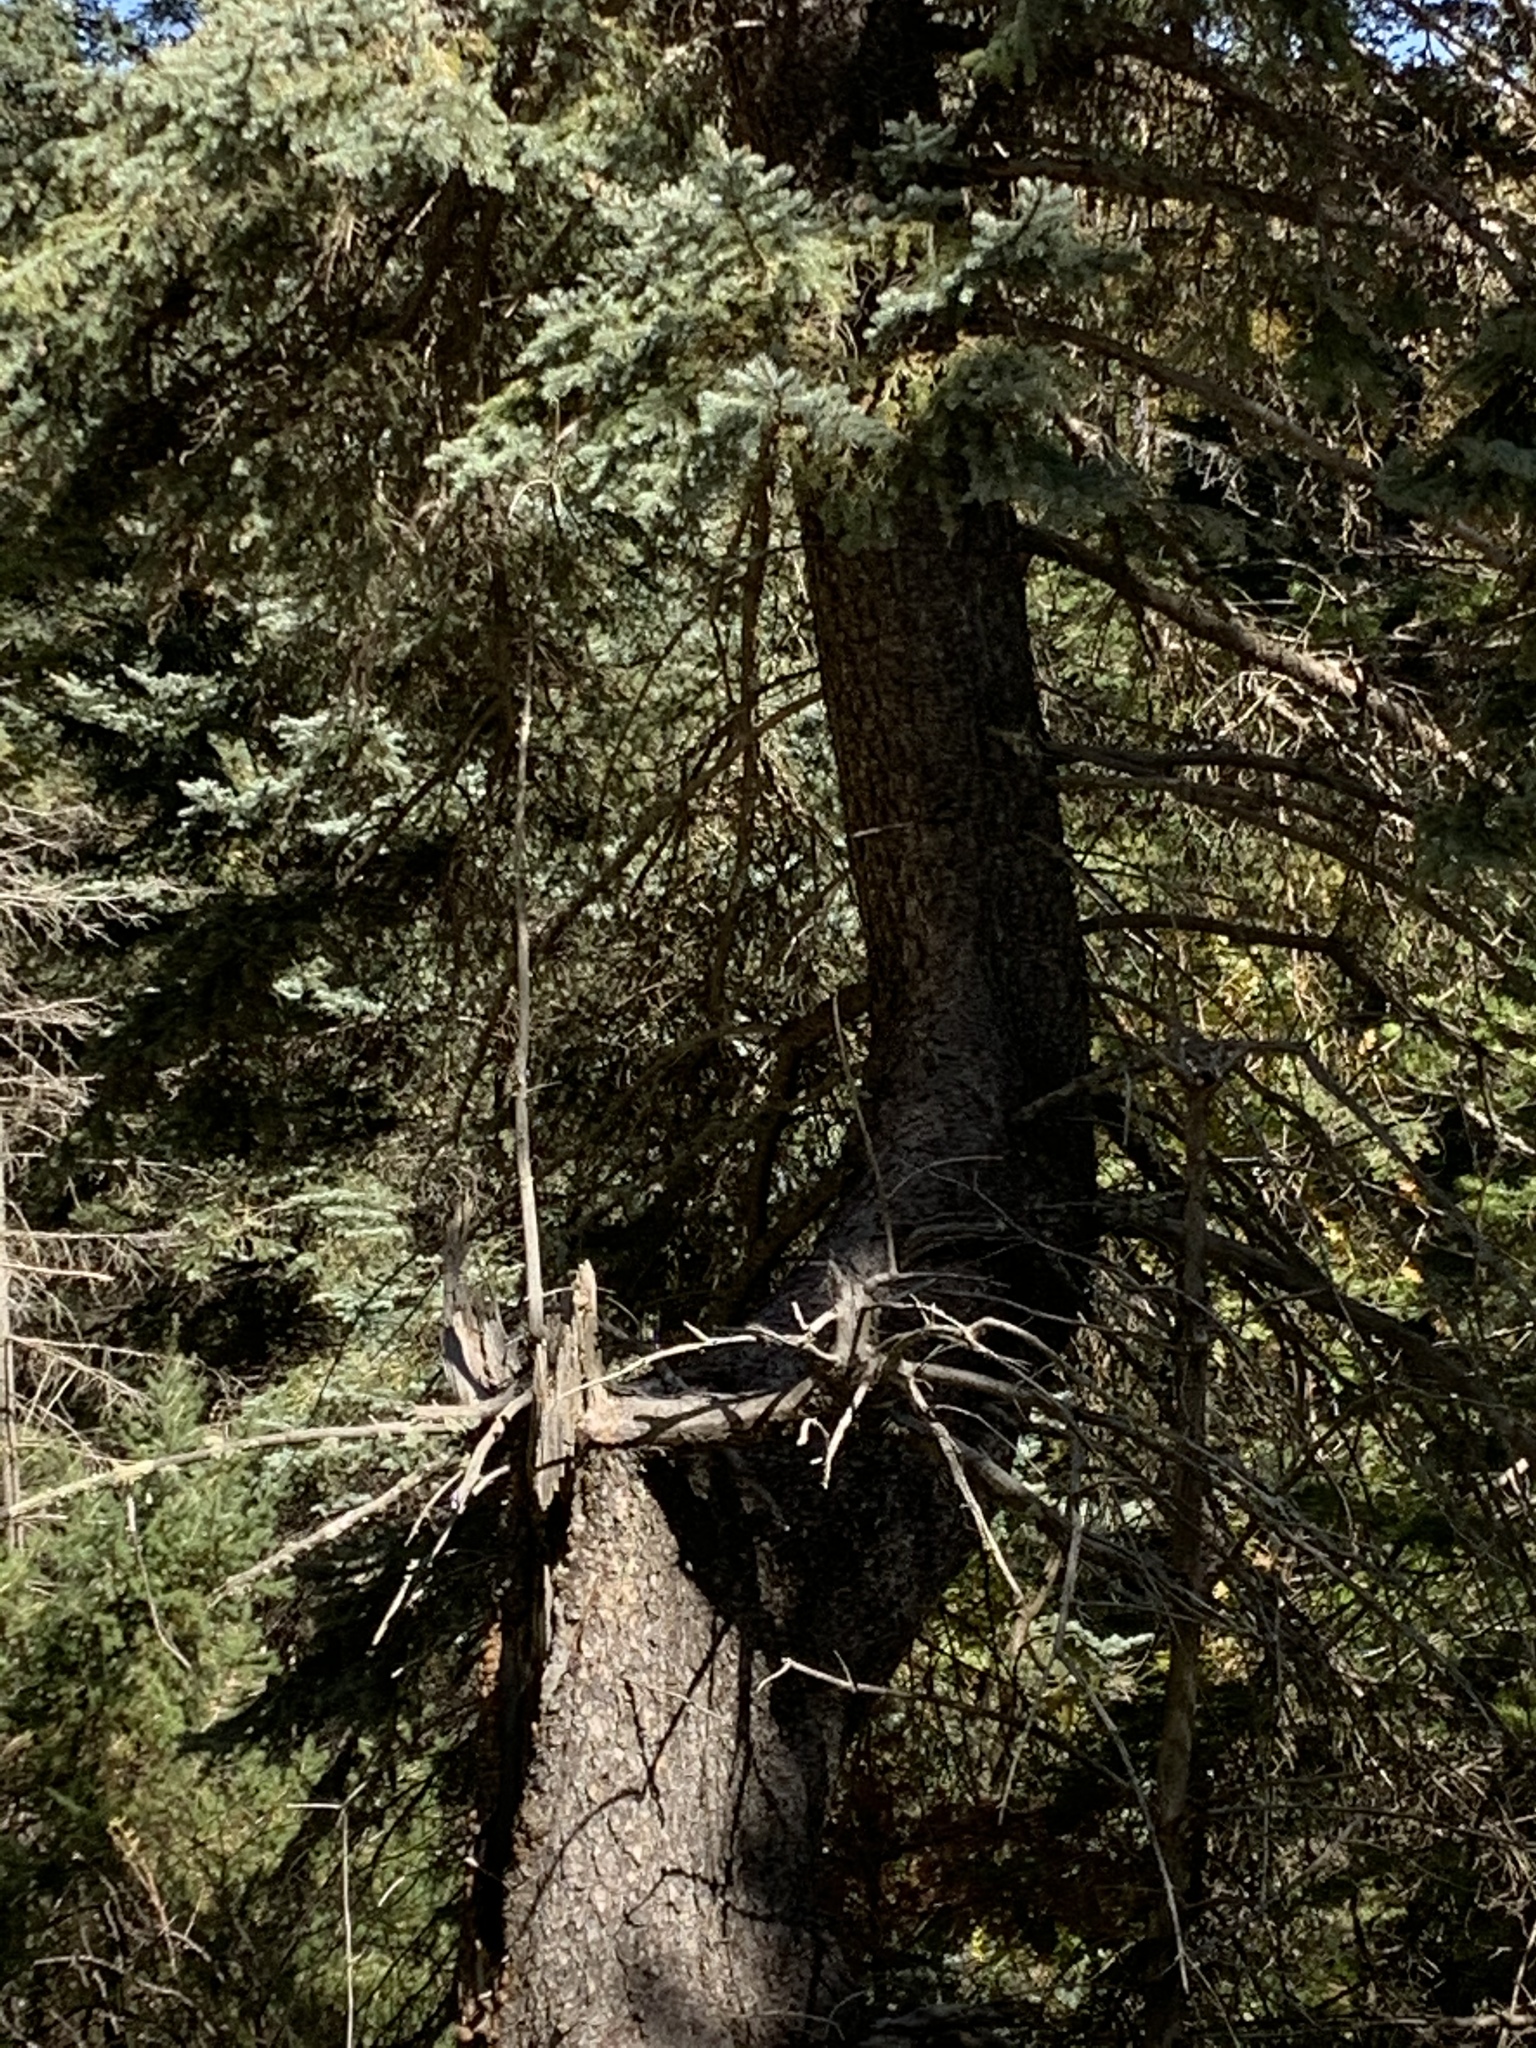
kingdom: Plantae
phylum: Tracheophyta
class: Pinopsida
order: Pinales
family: Pinaceae
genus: Picea
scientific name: Picea engelmannii
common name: Engelmann spruce
